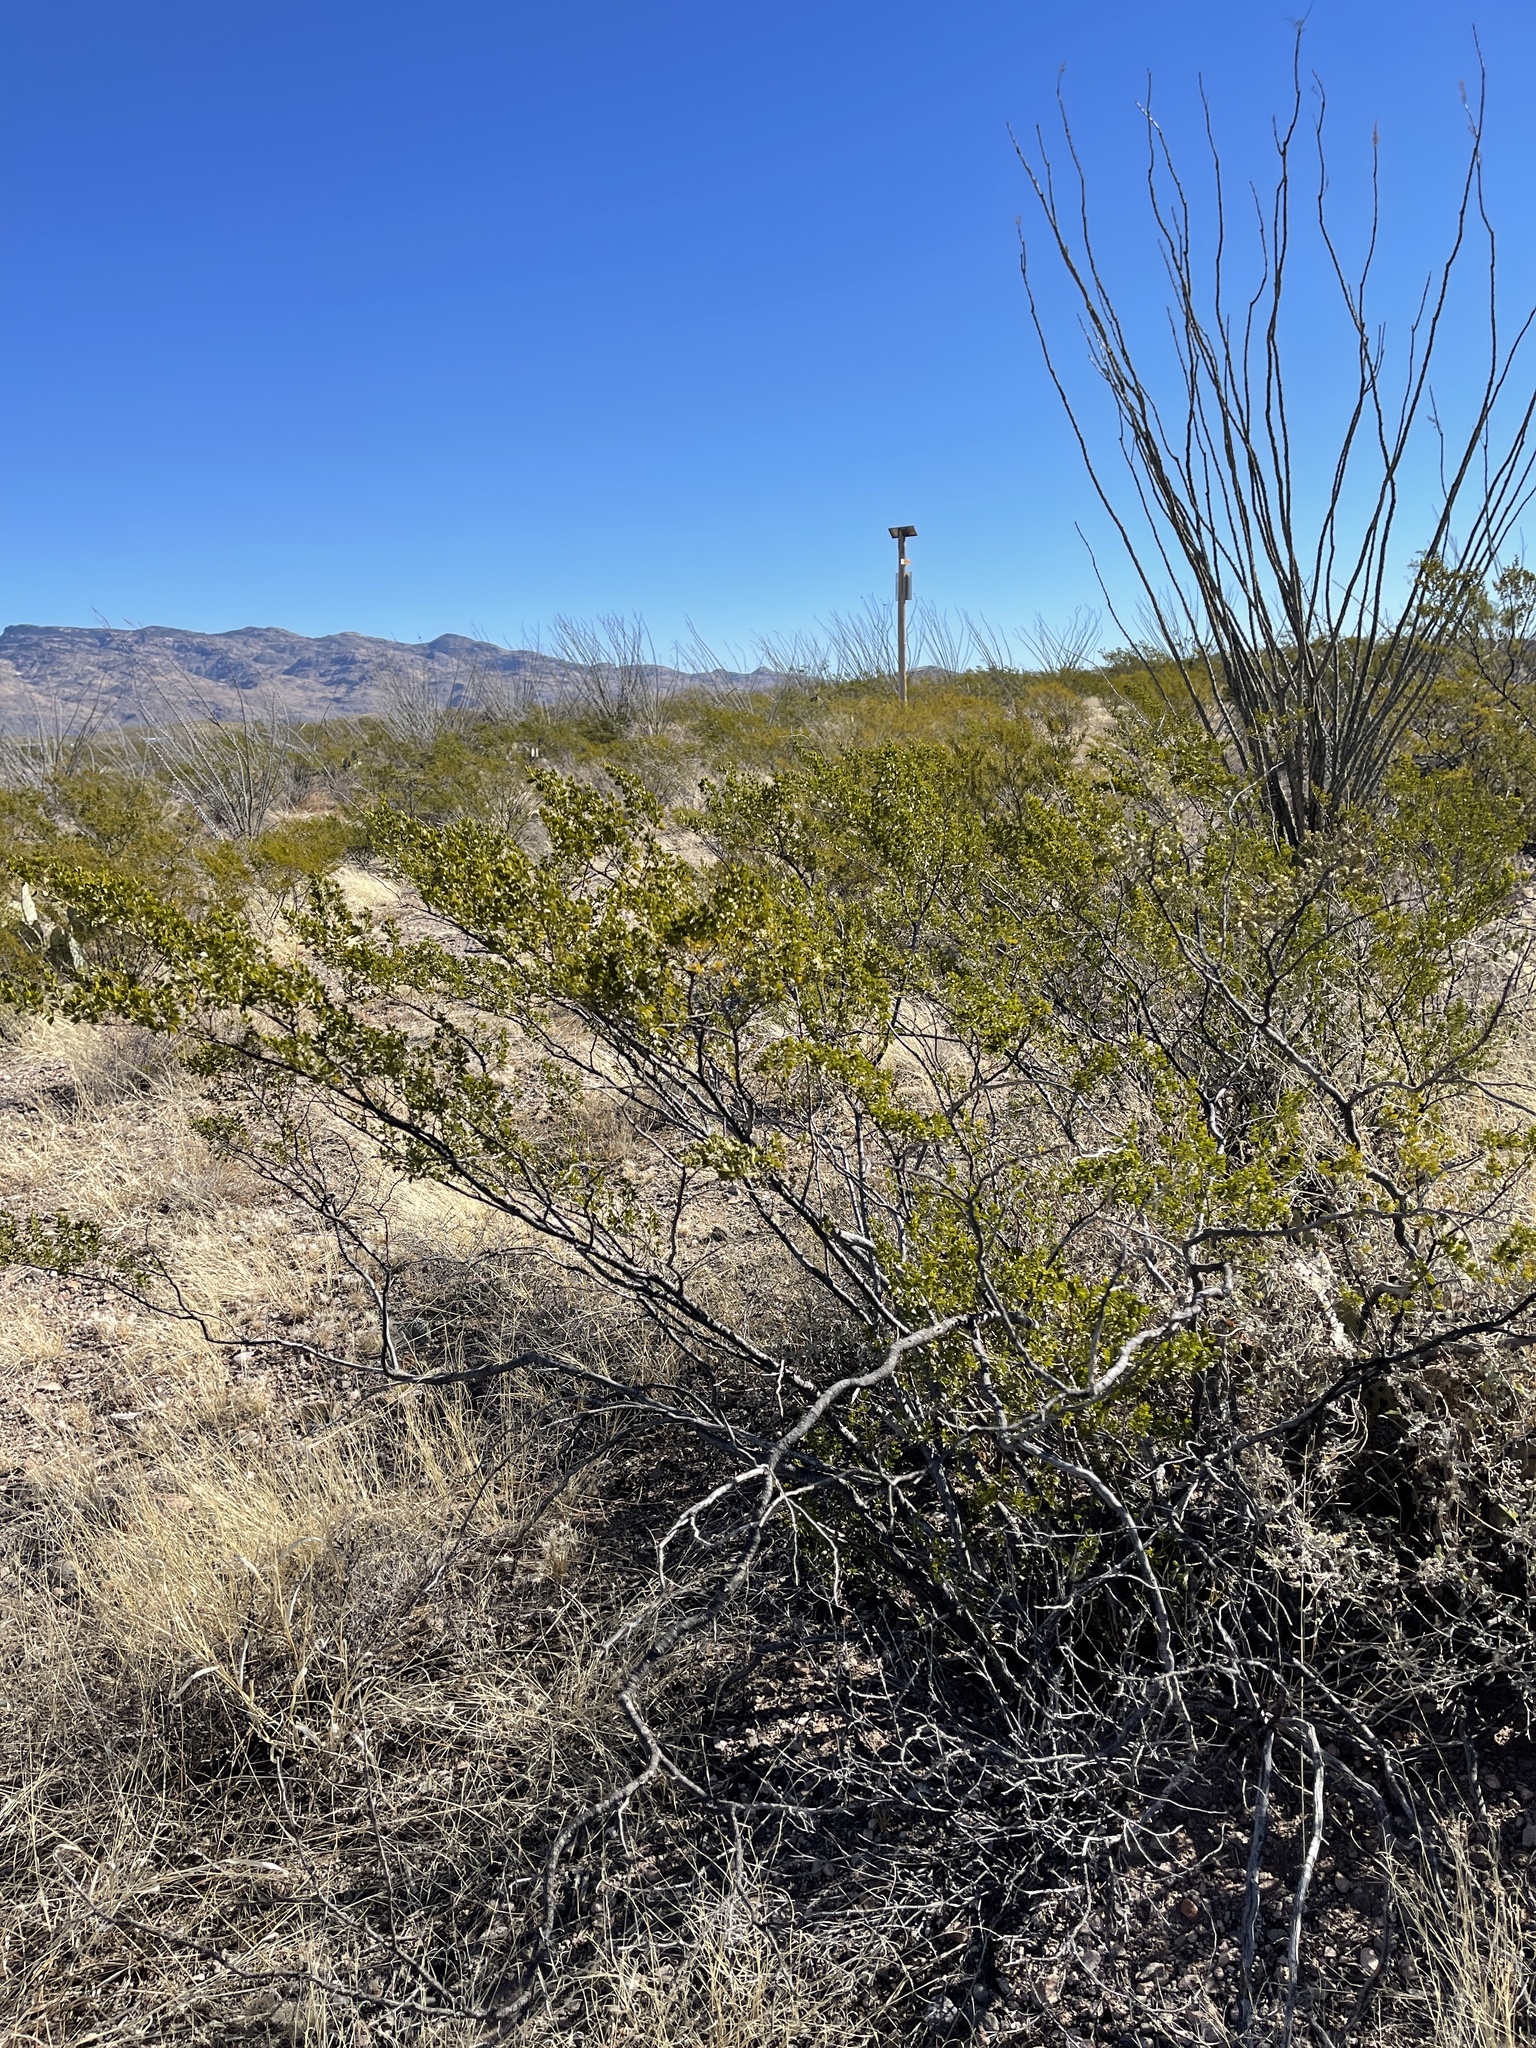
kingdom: Plantae
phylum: Tracheophyta
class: Magnoliopsida
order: Zygophyllales
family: Zygophyllaceae
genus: Larrea
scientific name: Larrea tridentata
